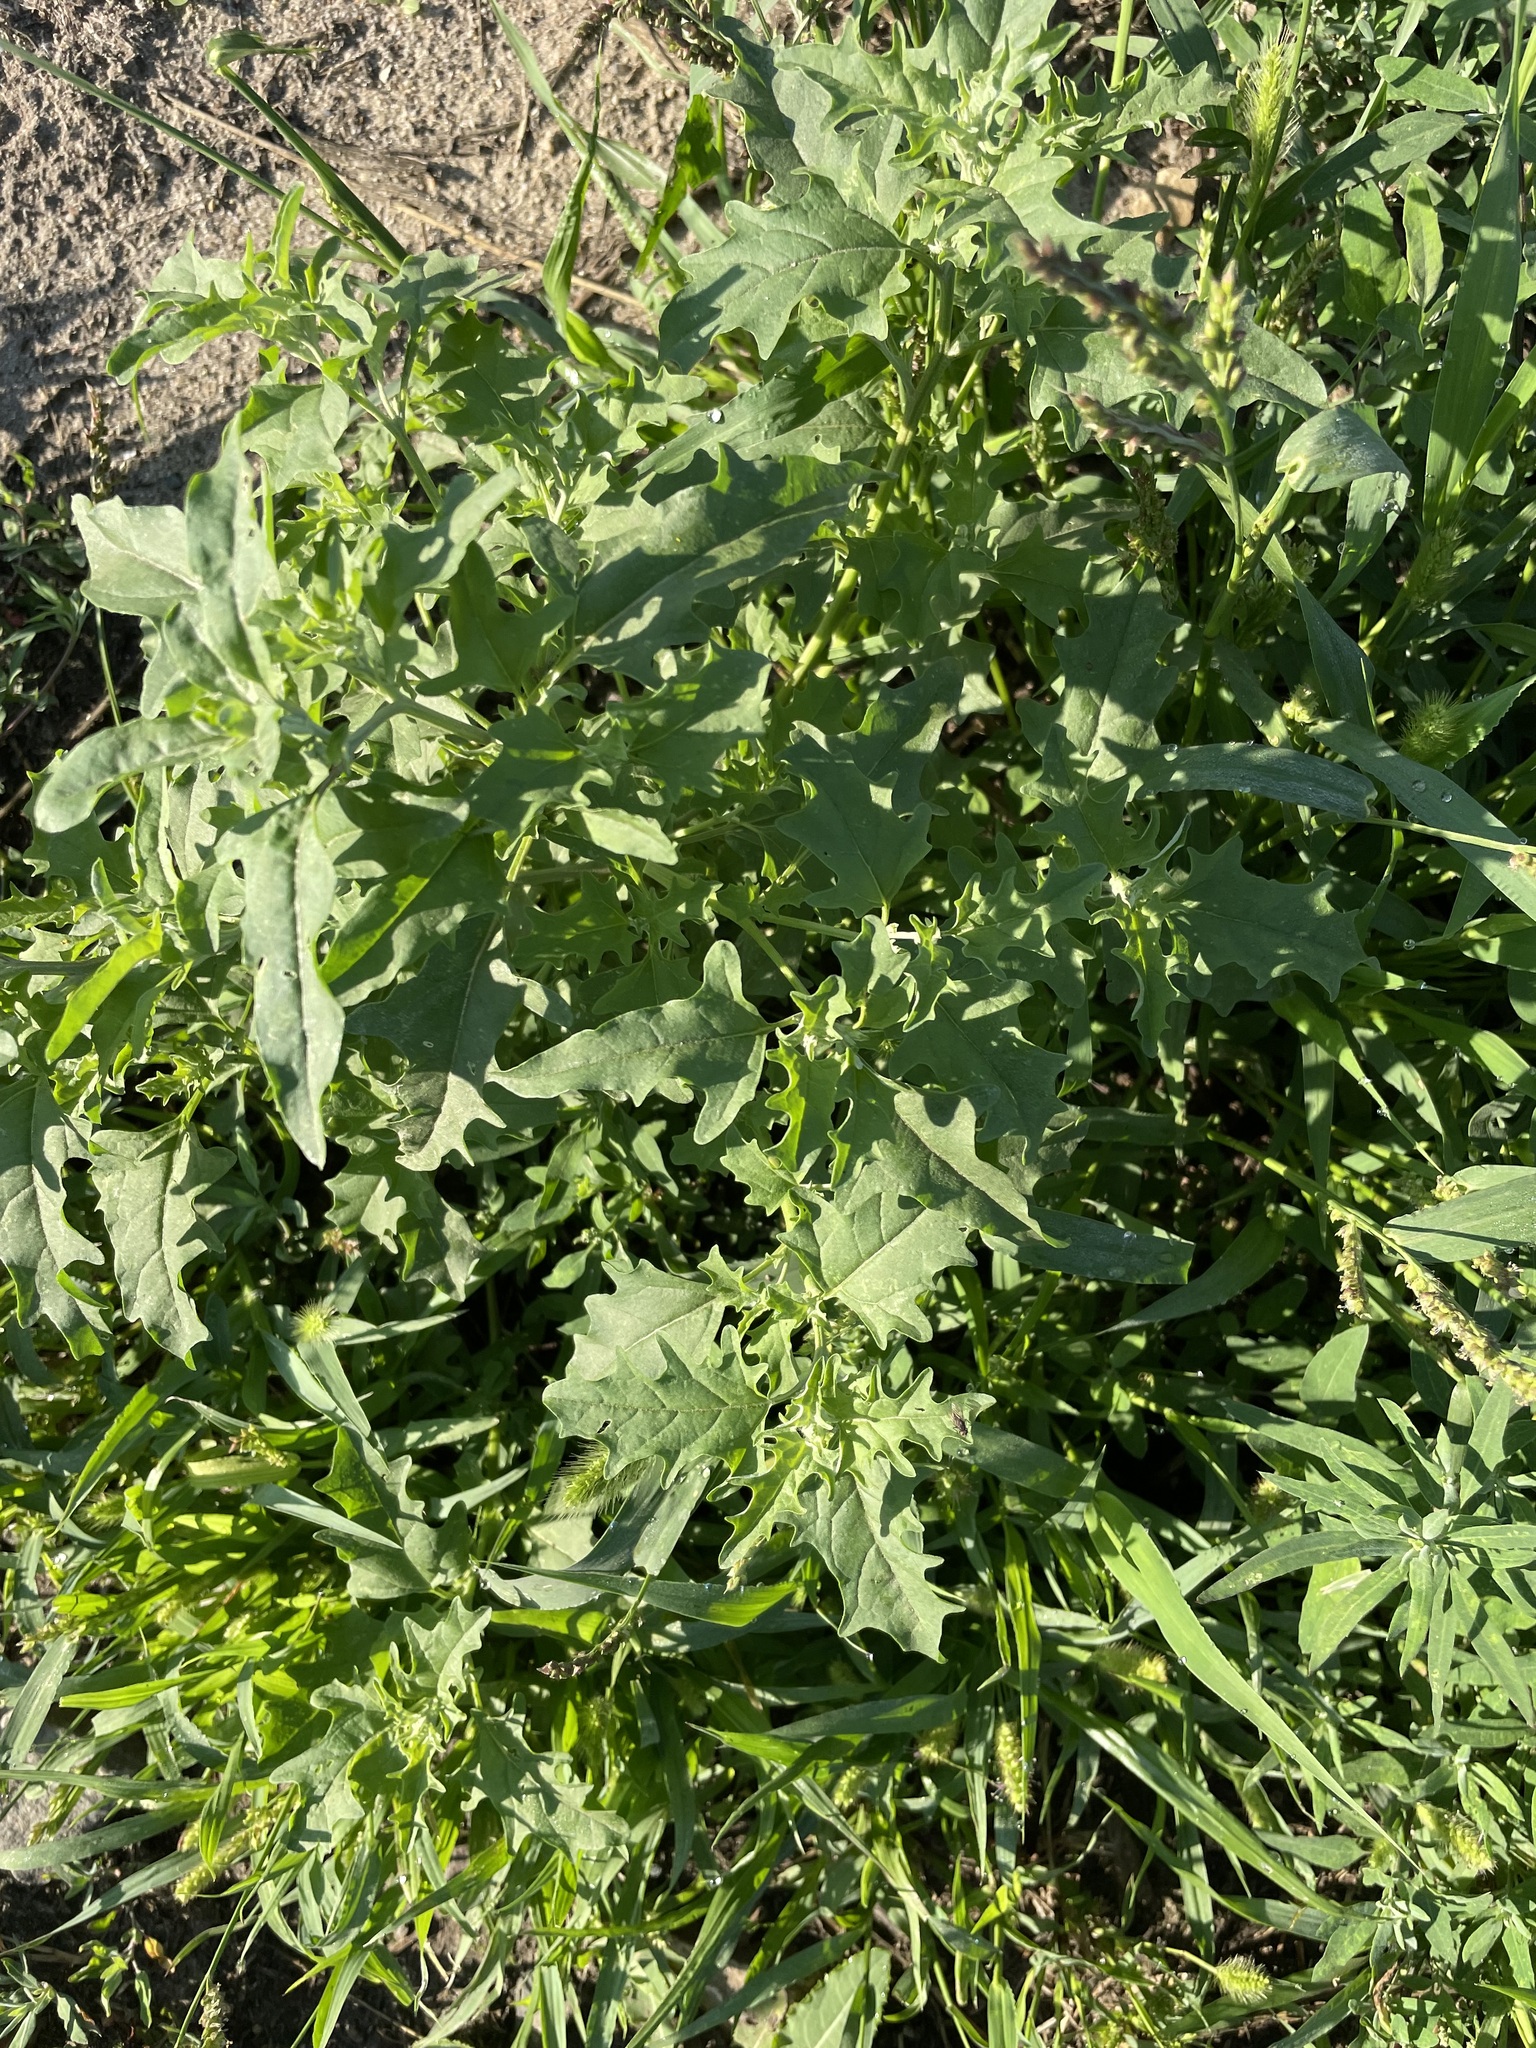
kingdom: Plantae
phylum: Tracheophyta
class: Magnoliopsida
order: Caryophyllales
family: Amaranthaceae
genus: Atriplex
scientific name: Atriplex tatarica
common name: Tatarian orache
